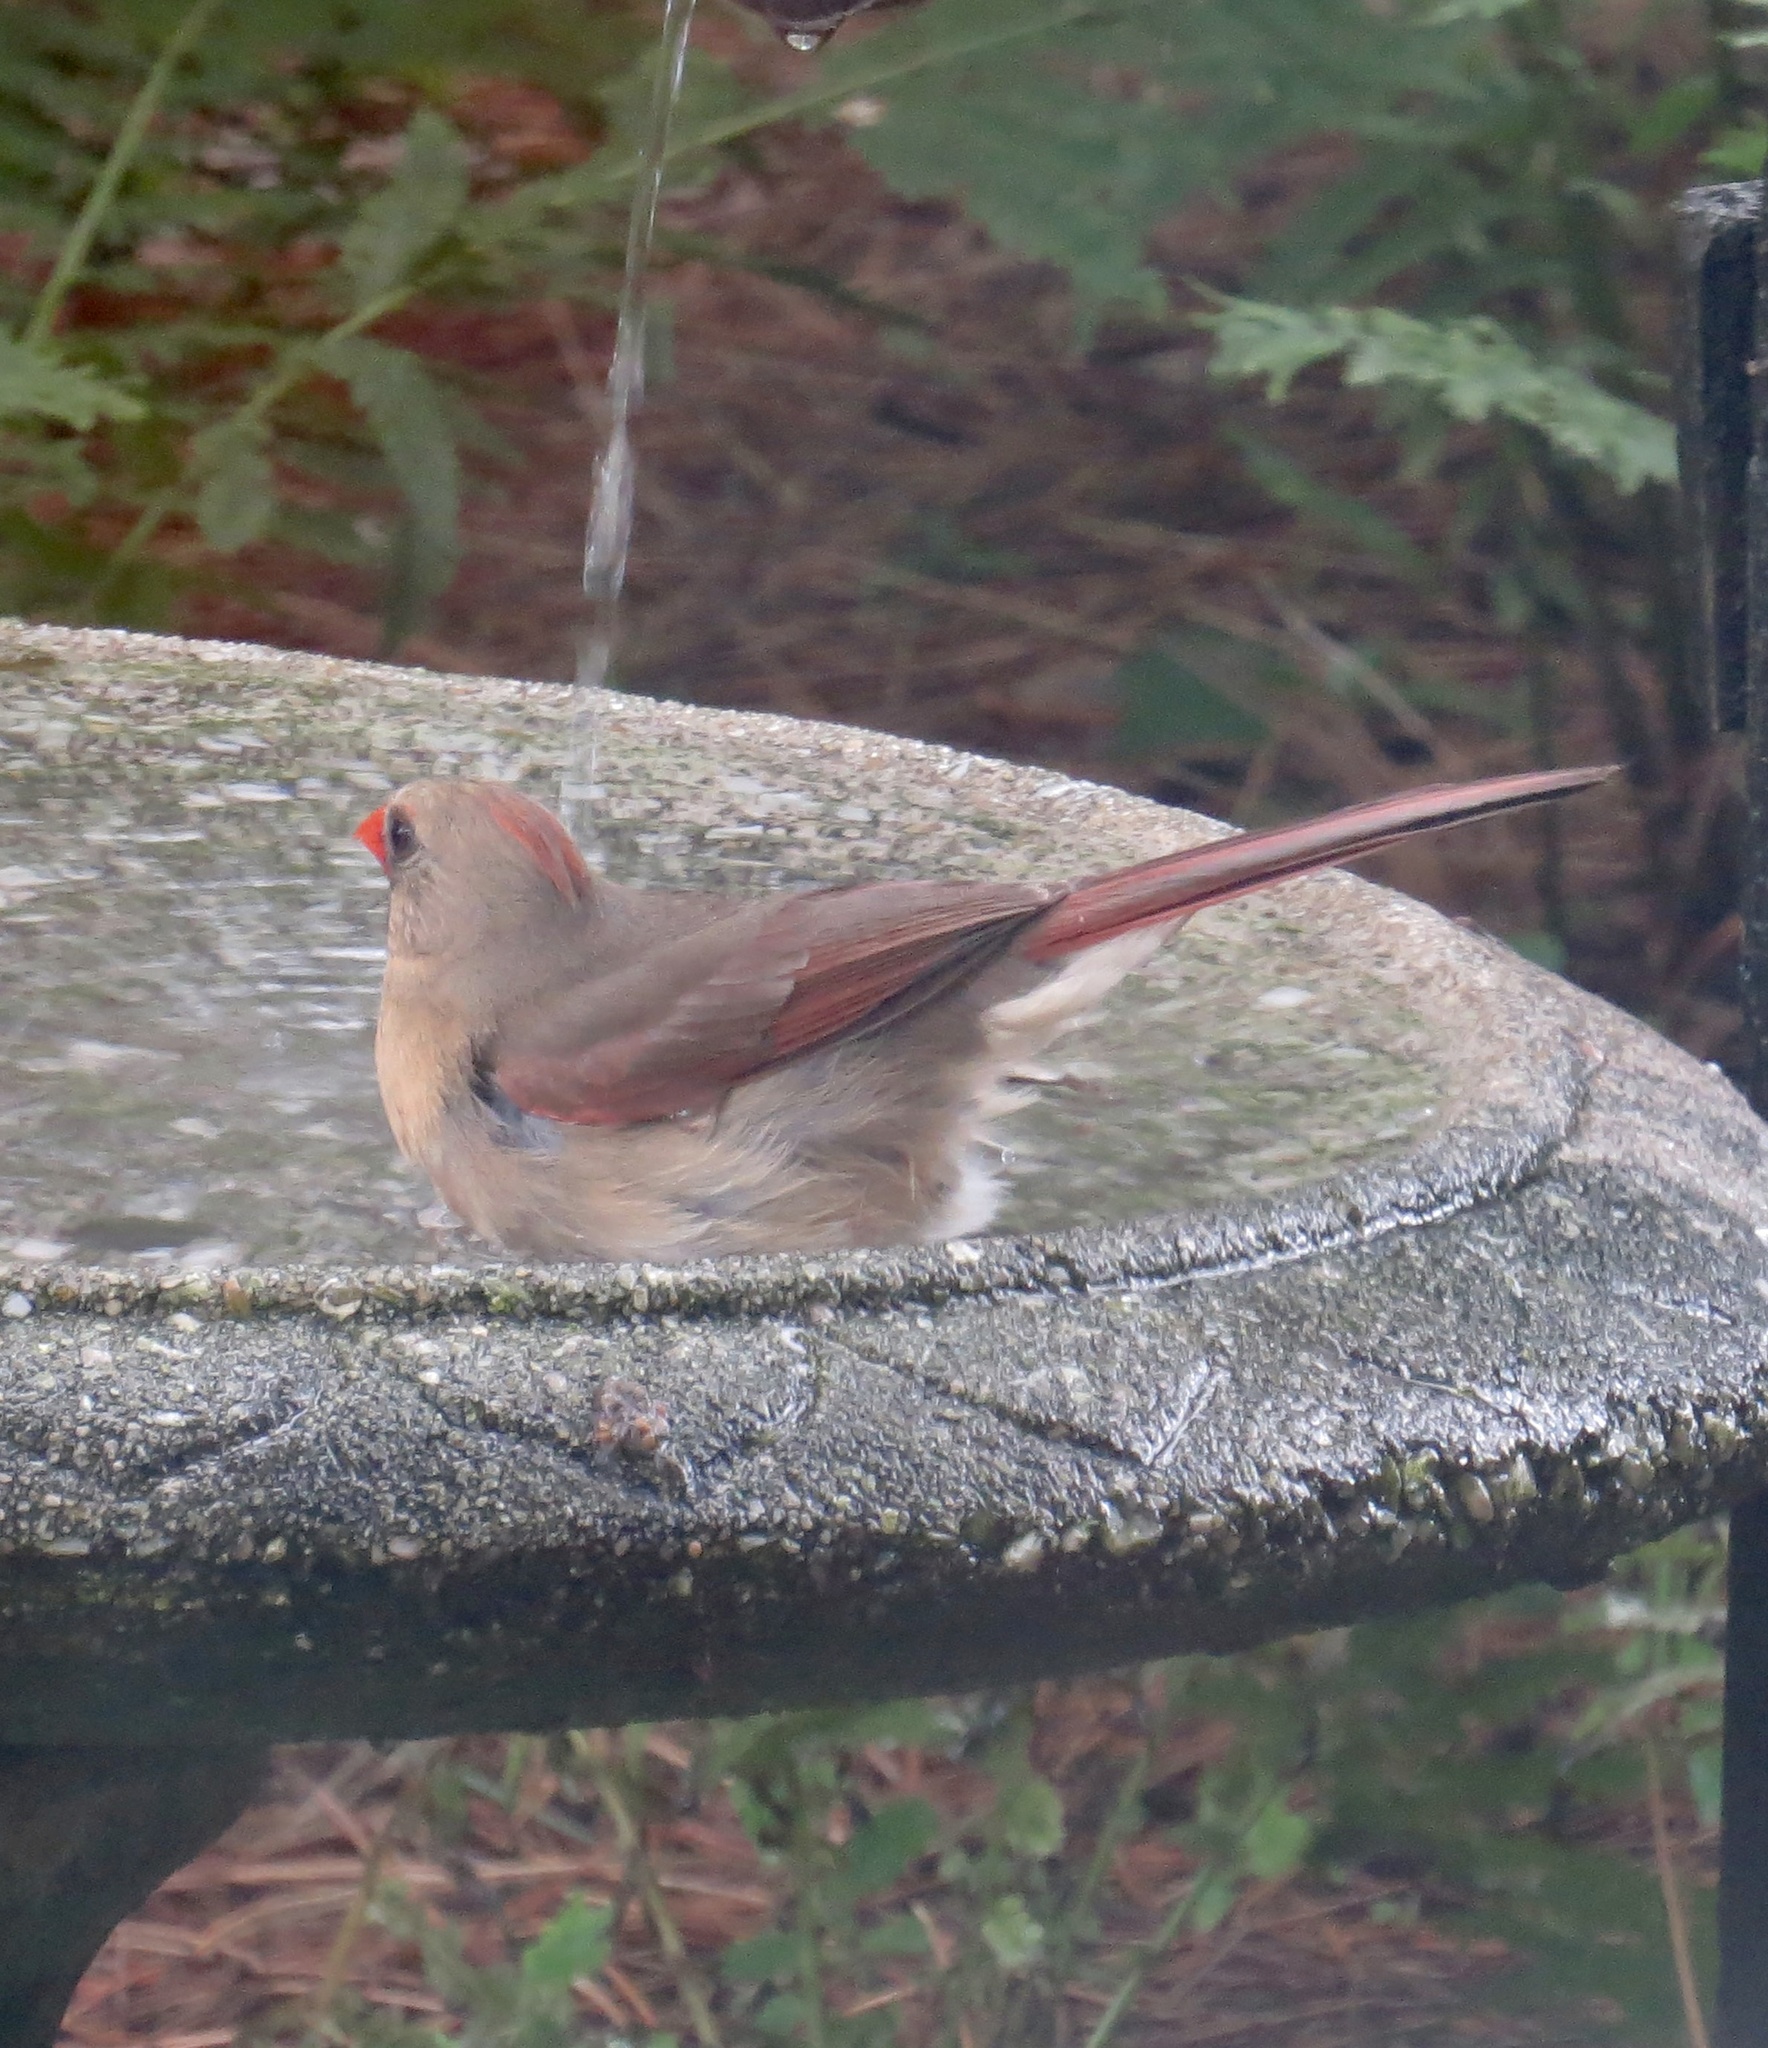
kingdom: Animalia
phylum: Chordata
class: Aves
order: Passeriformes
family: Cardinalidae
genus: Cardinalis
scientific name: Cardinalis cardinalis
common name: Northern cardinal
